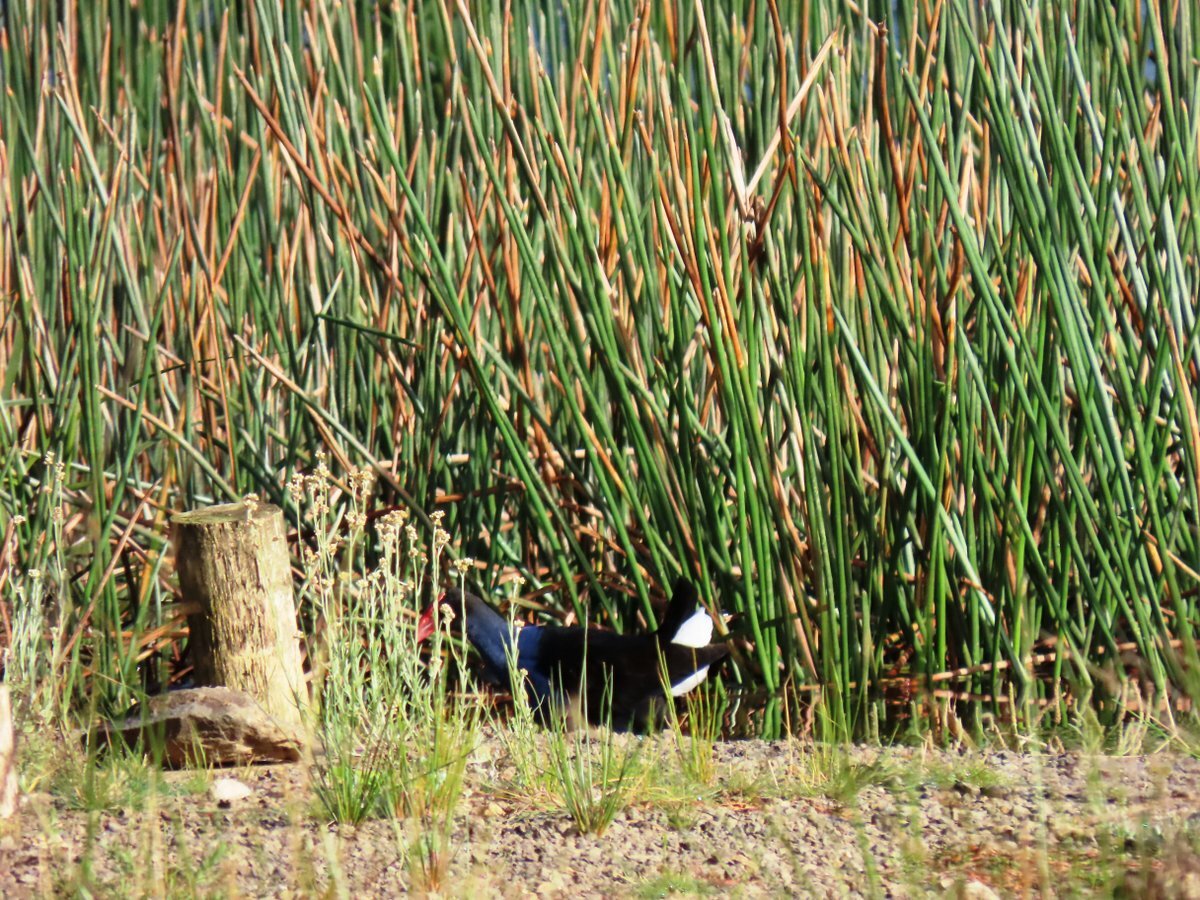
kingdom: Animalia
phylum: Chordata
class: Aves
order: Gruiformes
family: Rallidae
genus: Porphyrio
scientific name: Porphyrio melanotus
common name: Australasian swamphen
